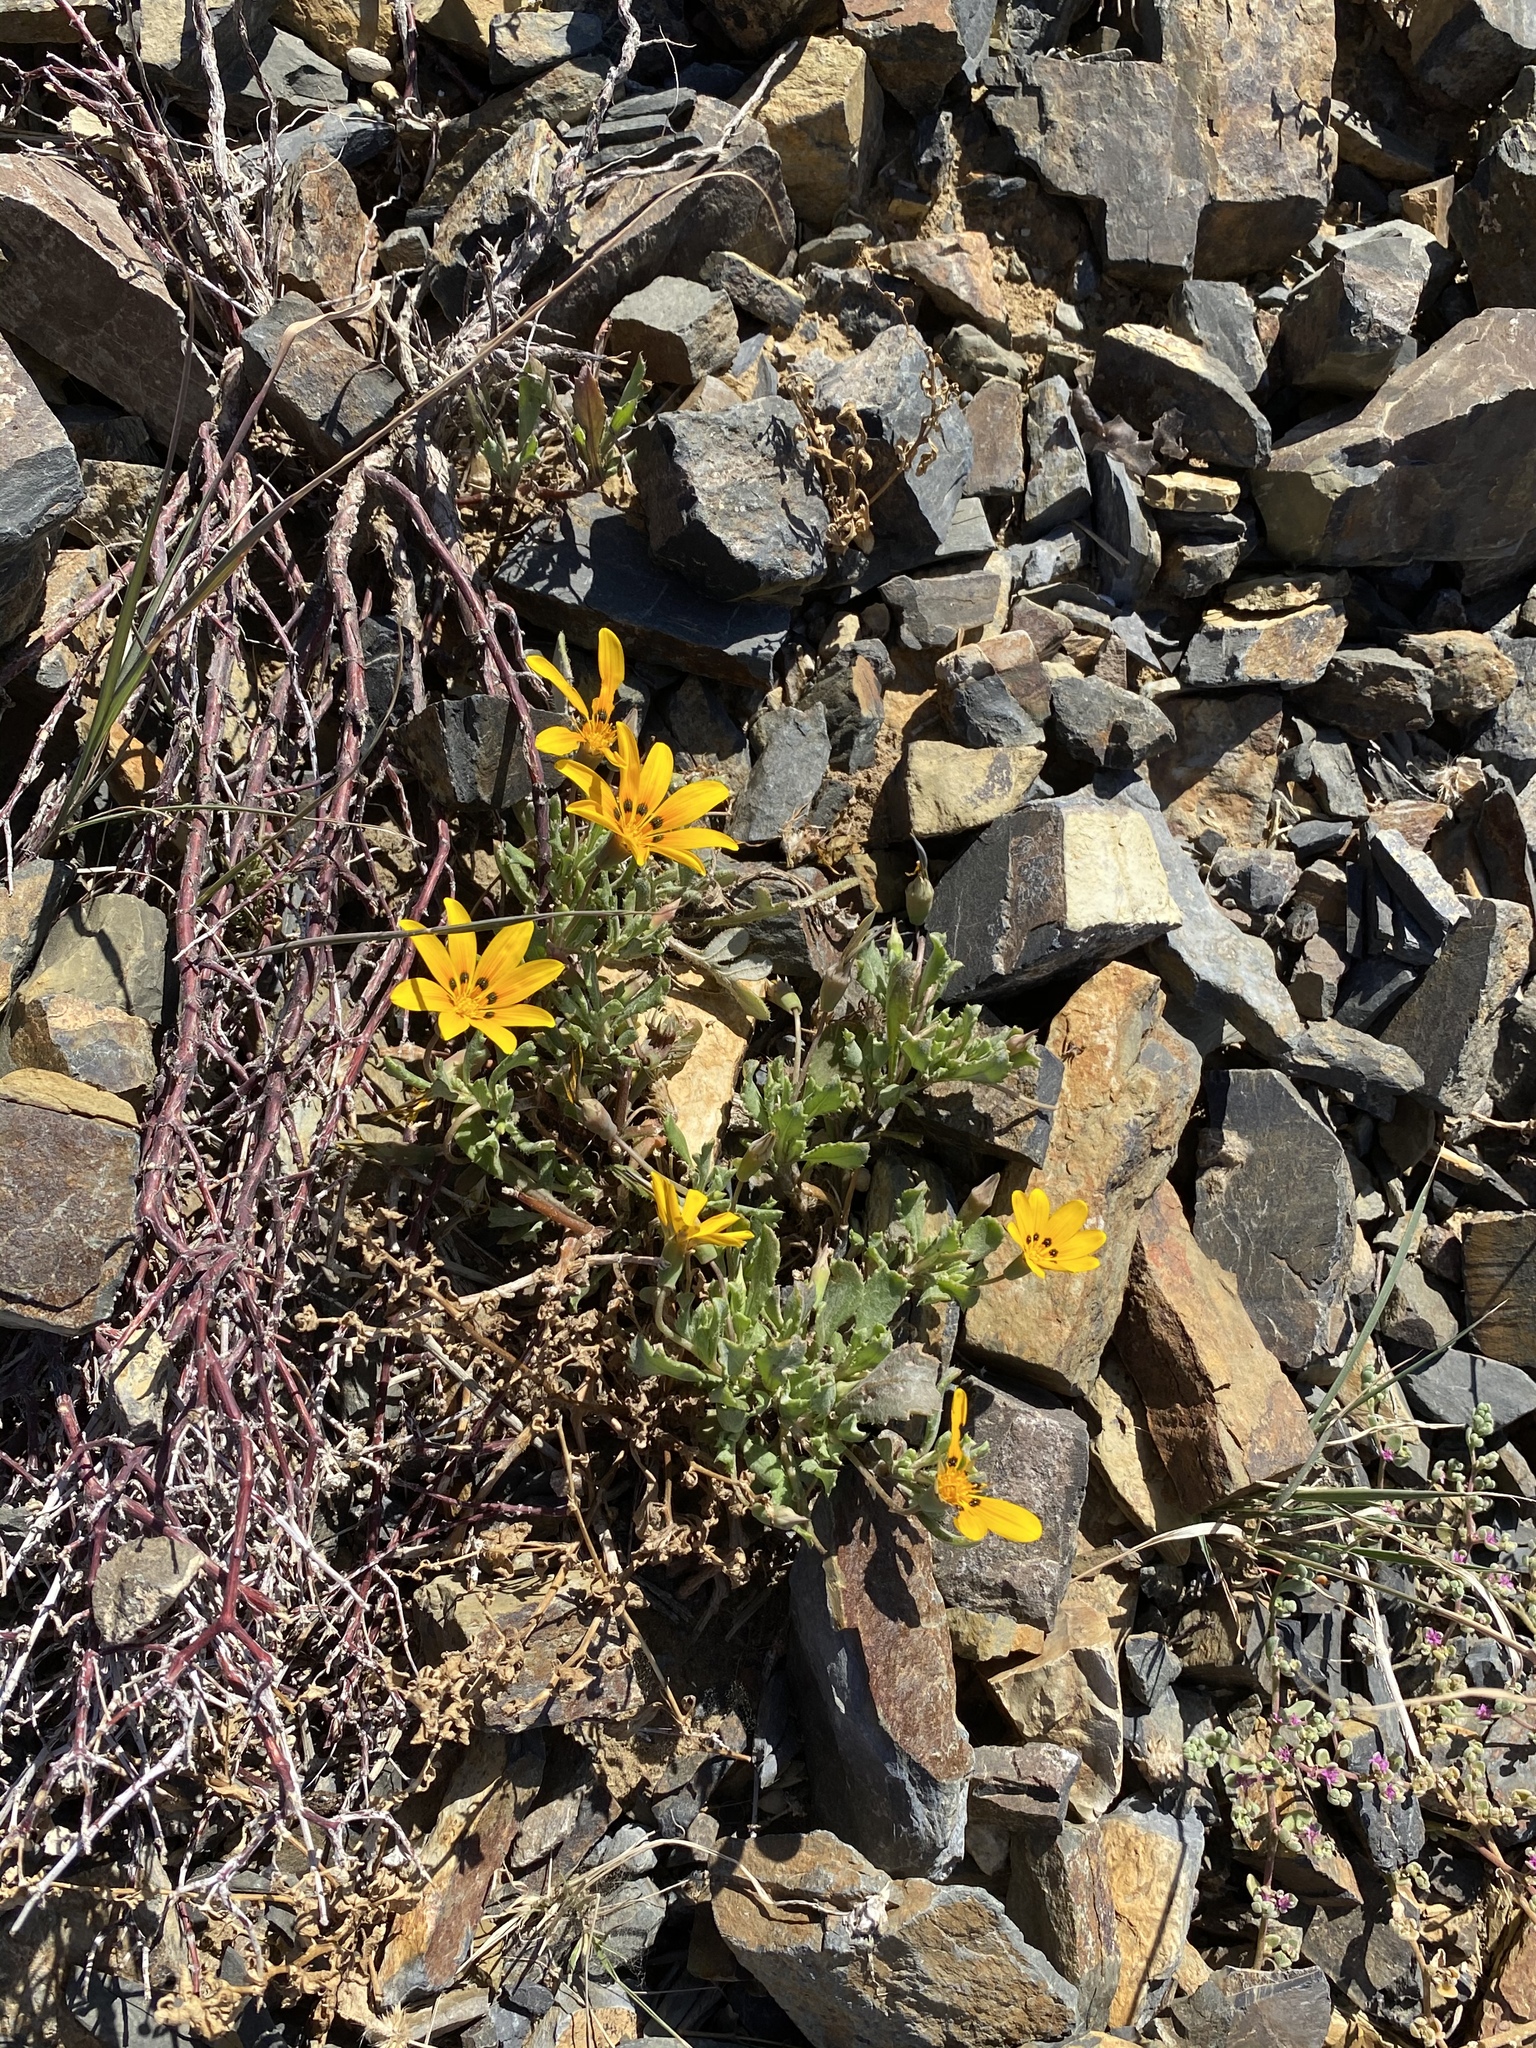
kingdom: Plantae
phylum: Tracheophyta
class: Magnoliopsida
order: Asterales
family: Asteraceae
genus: Gazania
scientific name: Gazania lichtensteinii
